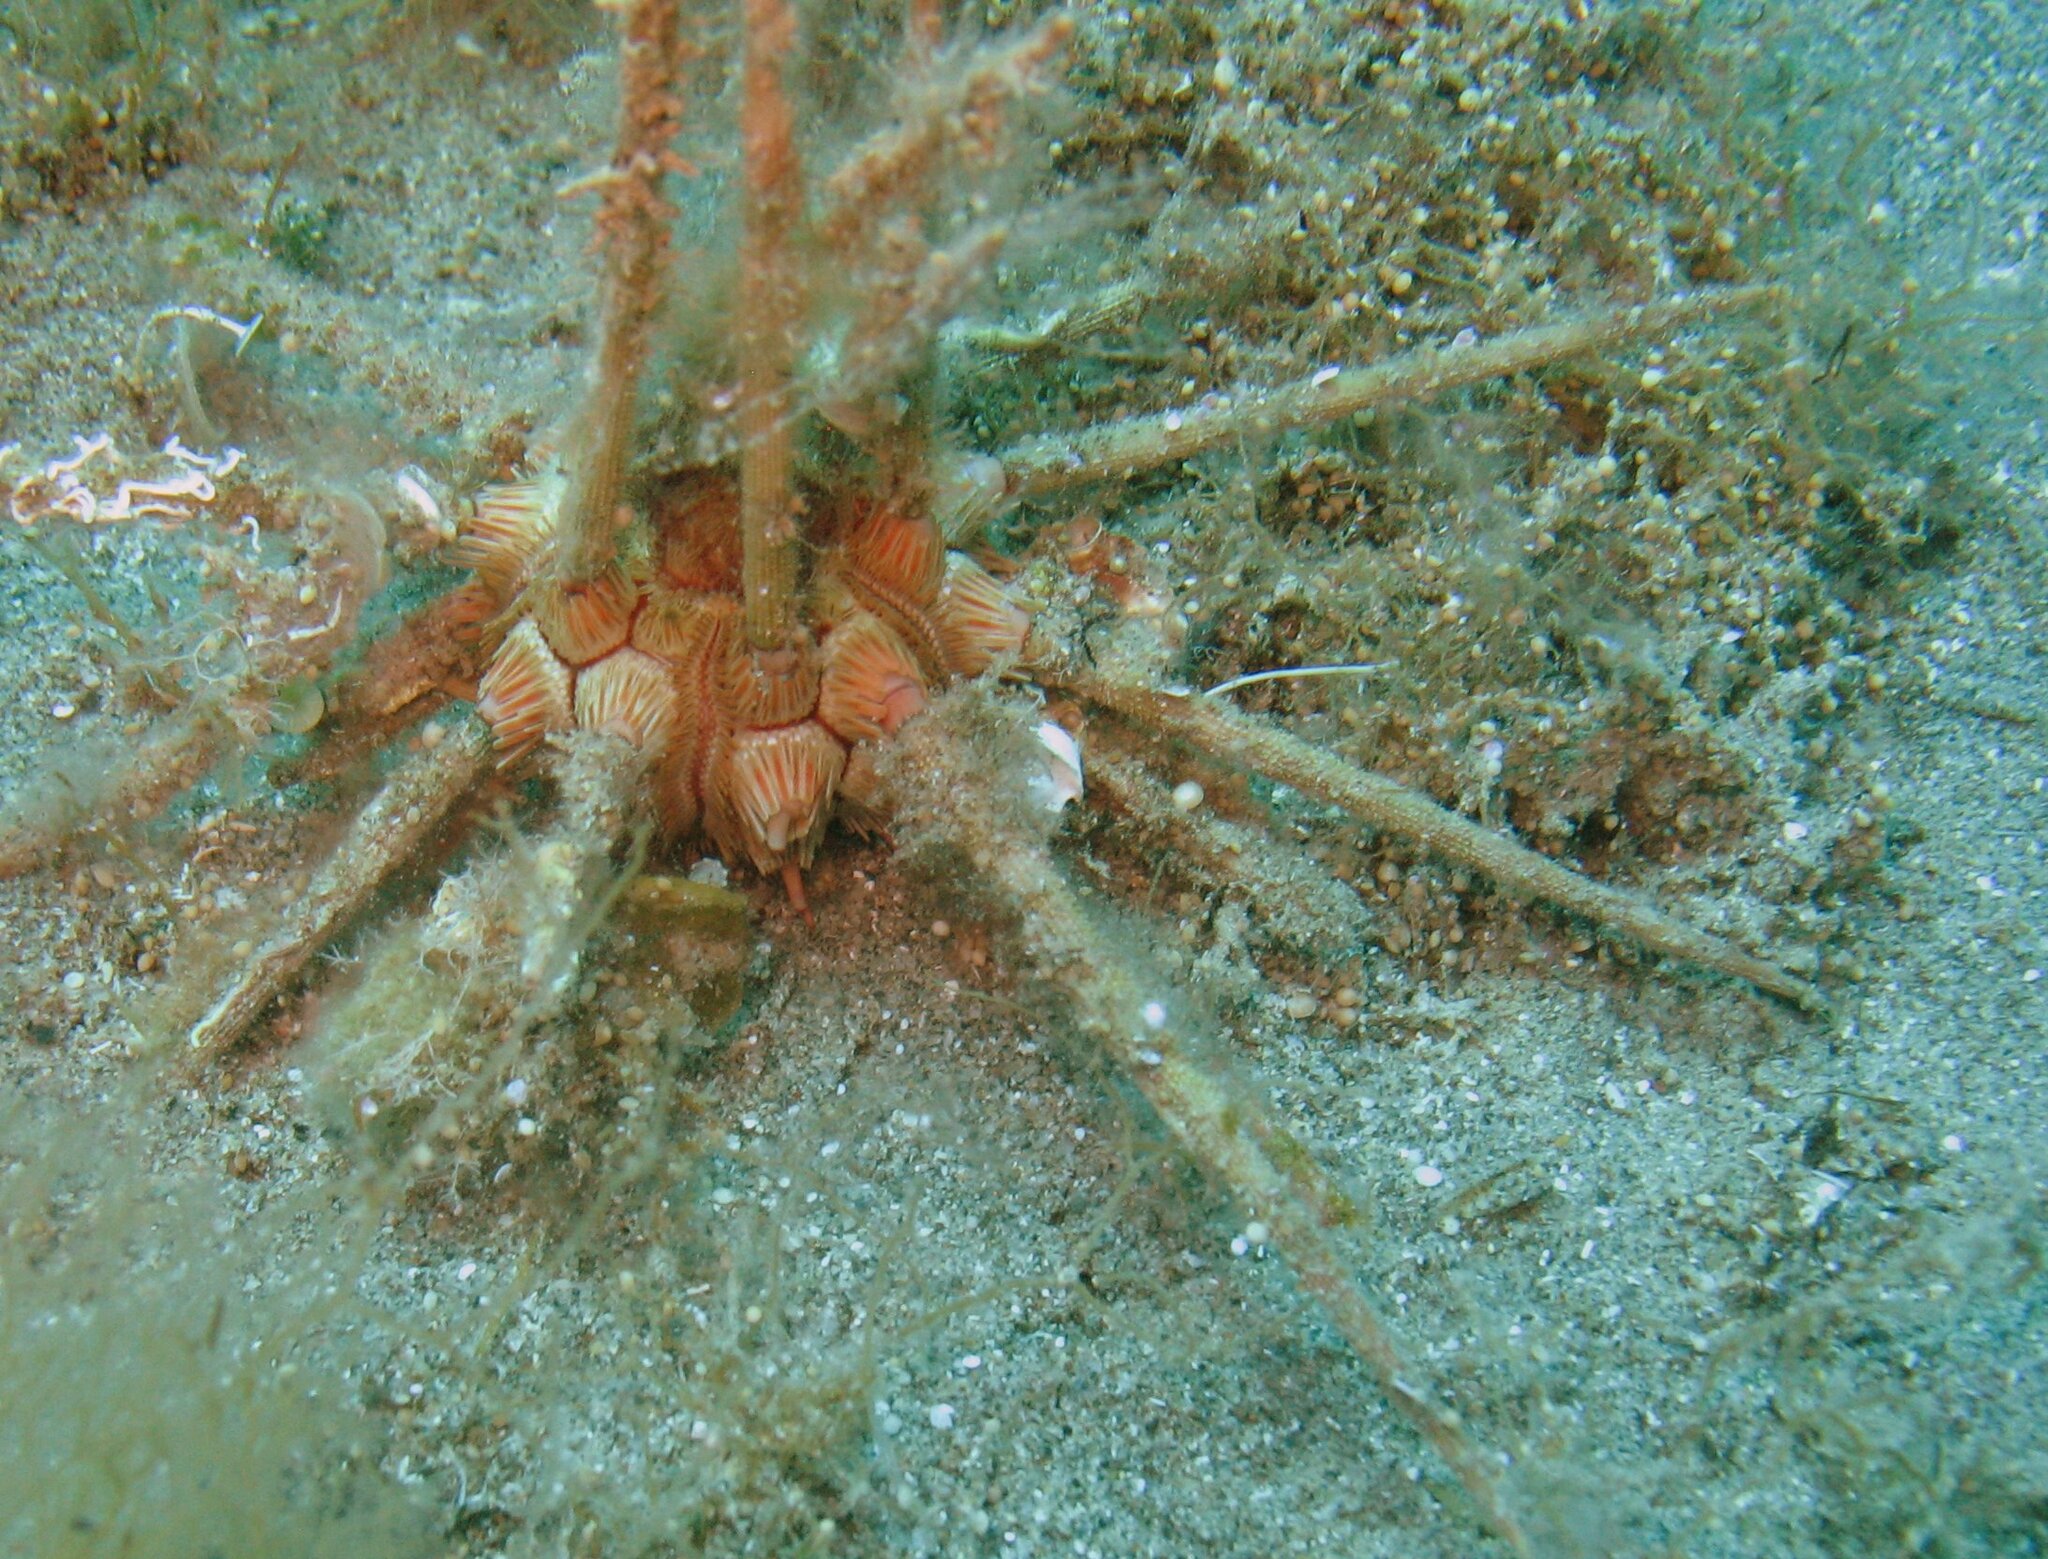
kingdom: Animalia
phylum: Echinodermata
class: Echinoidea
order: Cidaroida
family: Cidaridae
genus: Stylocidaris
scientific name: Stylocidaris affinis
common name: Red lance urchin
